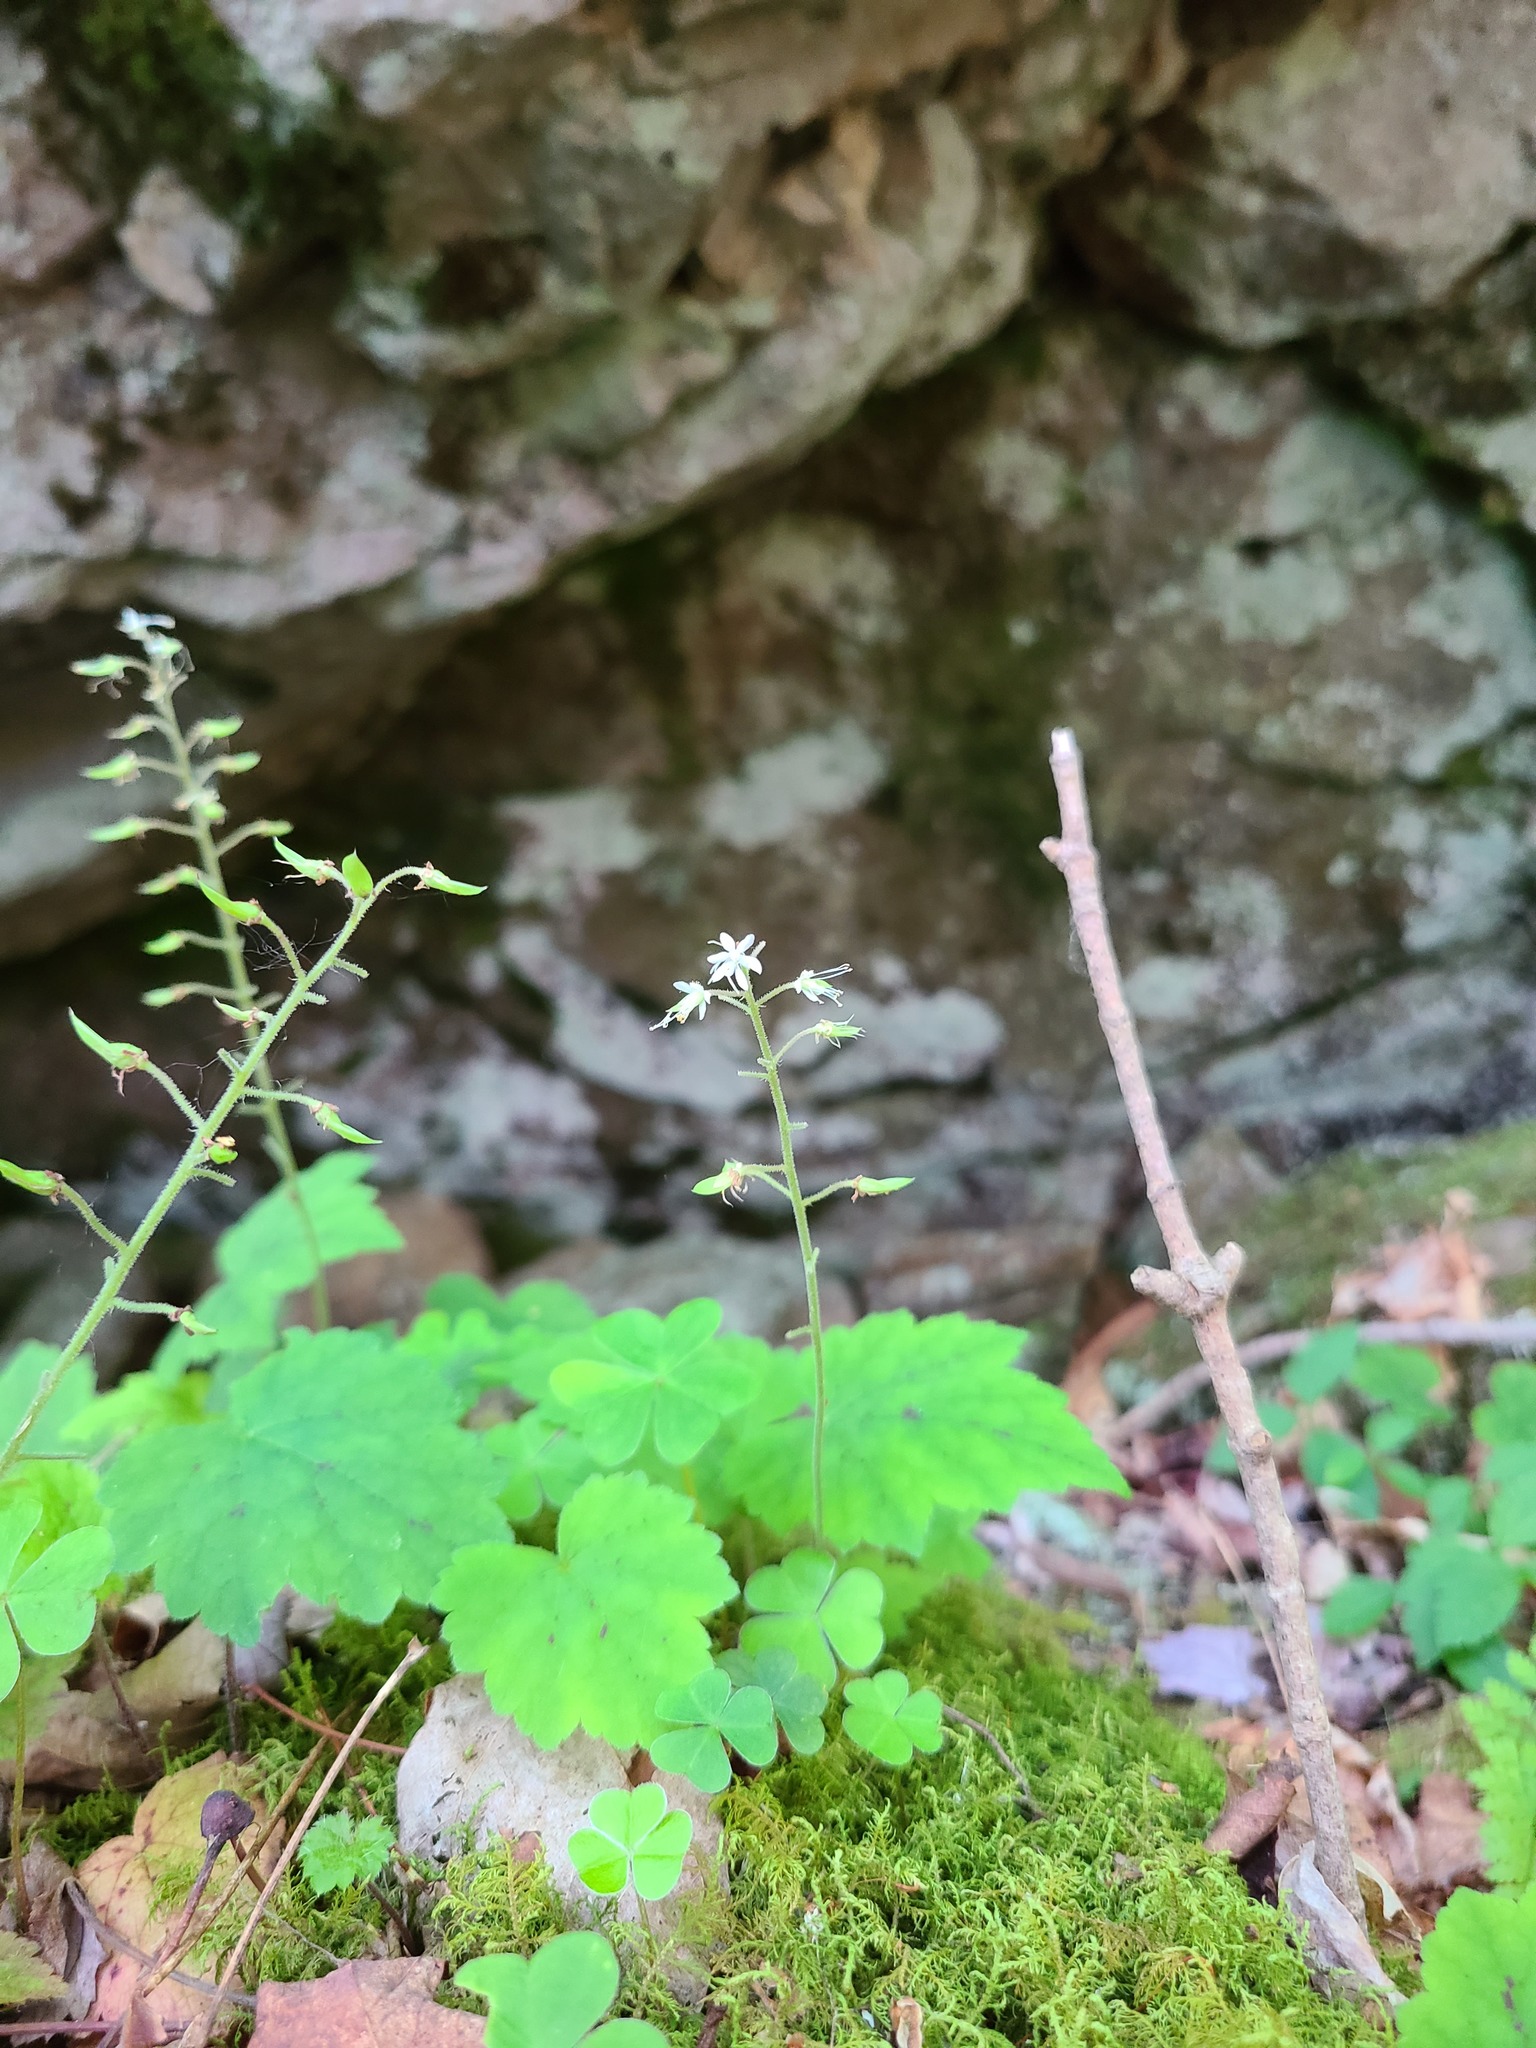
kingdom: Plantae
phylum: Tracheophyta
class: Magnoliopsida
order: Saxifragales
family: Saxifragaceae
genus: Tiarella
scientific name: Tiarella stolonifera
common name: Stoloniferous foamflower
